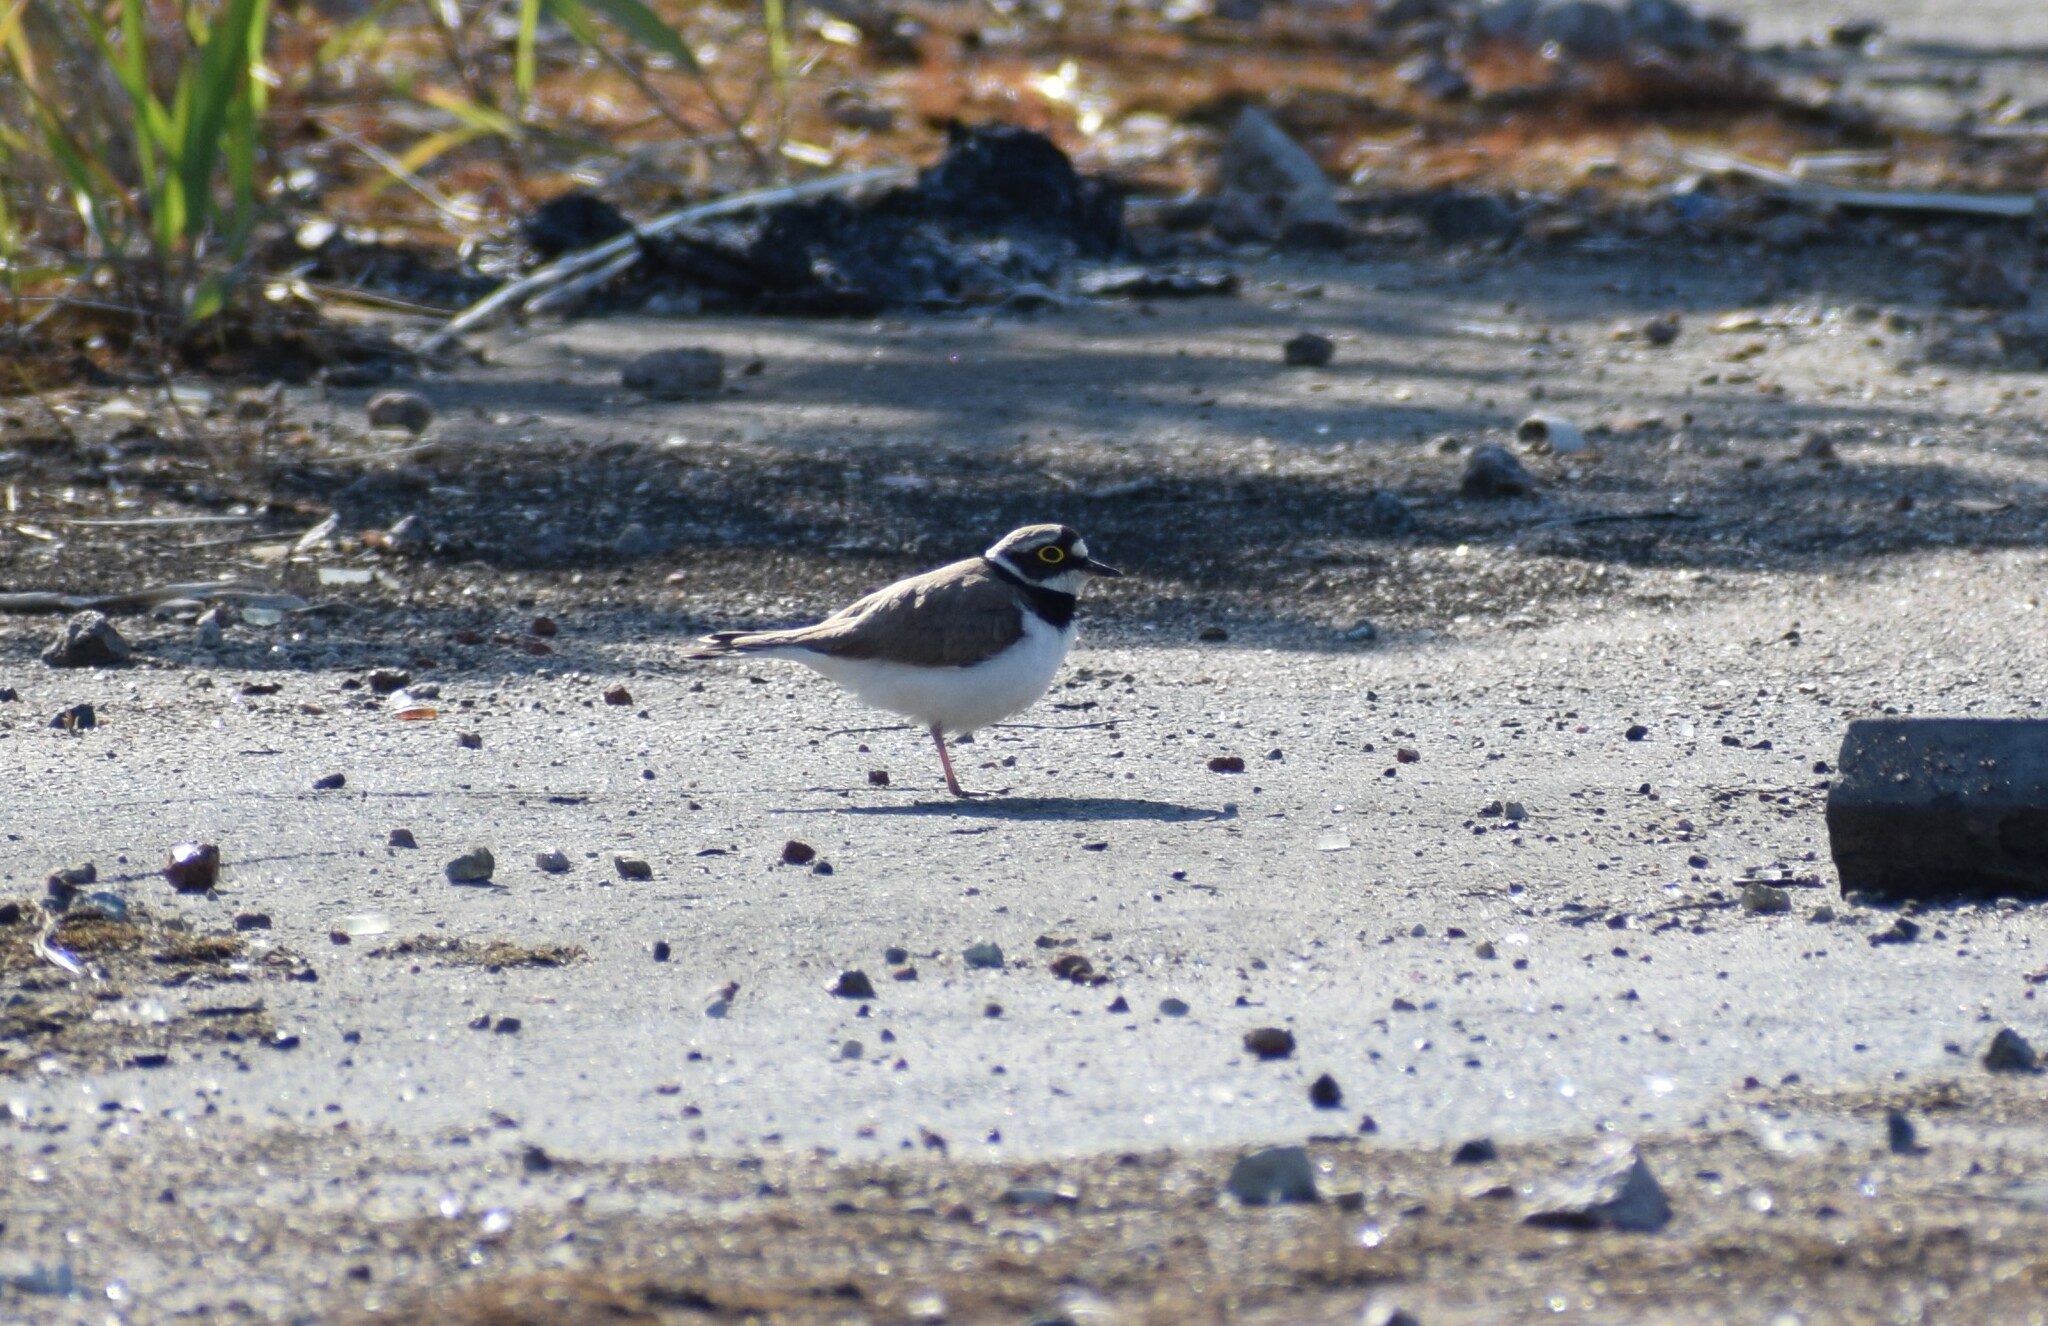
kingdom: Animalia
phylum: Chordata
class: Aves
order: Charadriiformes
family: Charadriidae
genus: Charadrius
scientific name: Charadrius dubius
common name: Little ringed plover
